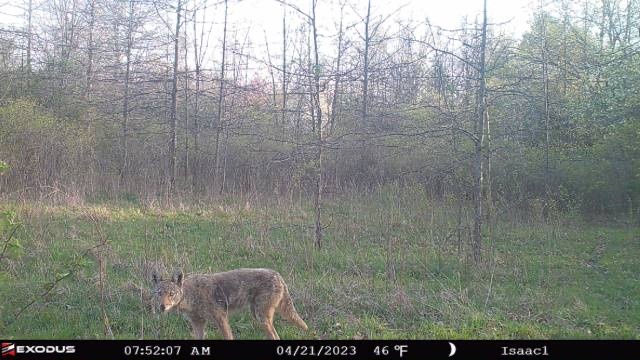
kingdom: Animalia
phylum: Chordata
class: Mammalia
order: Carnivora
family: Canidae
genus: Canis
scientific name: Canis latrans
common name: Coyote
